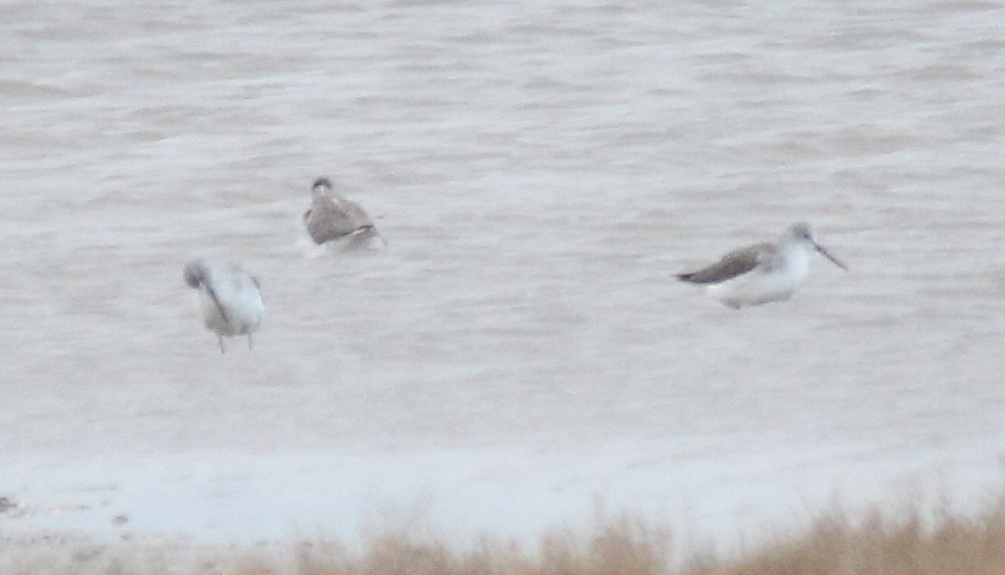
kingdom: Animalia
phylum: Chordata
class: Aves
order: Charadriiformes
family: Scolopacidae
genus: Tringa
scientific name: Tringa nebularia
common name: Common greenshank
